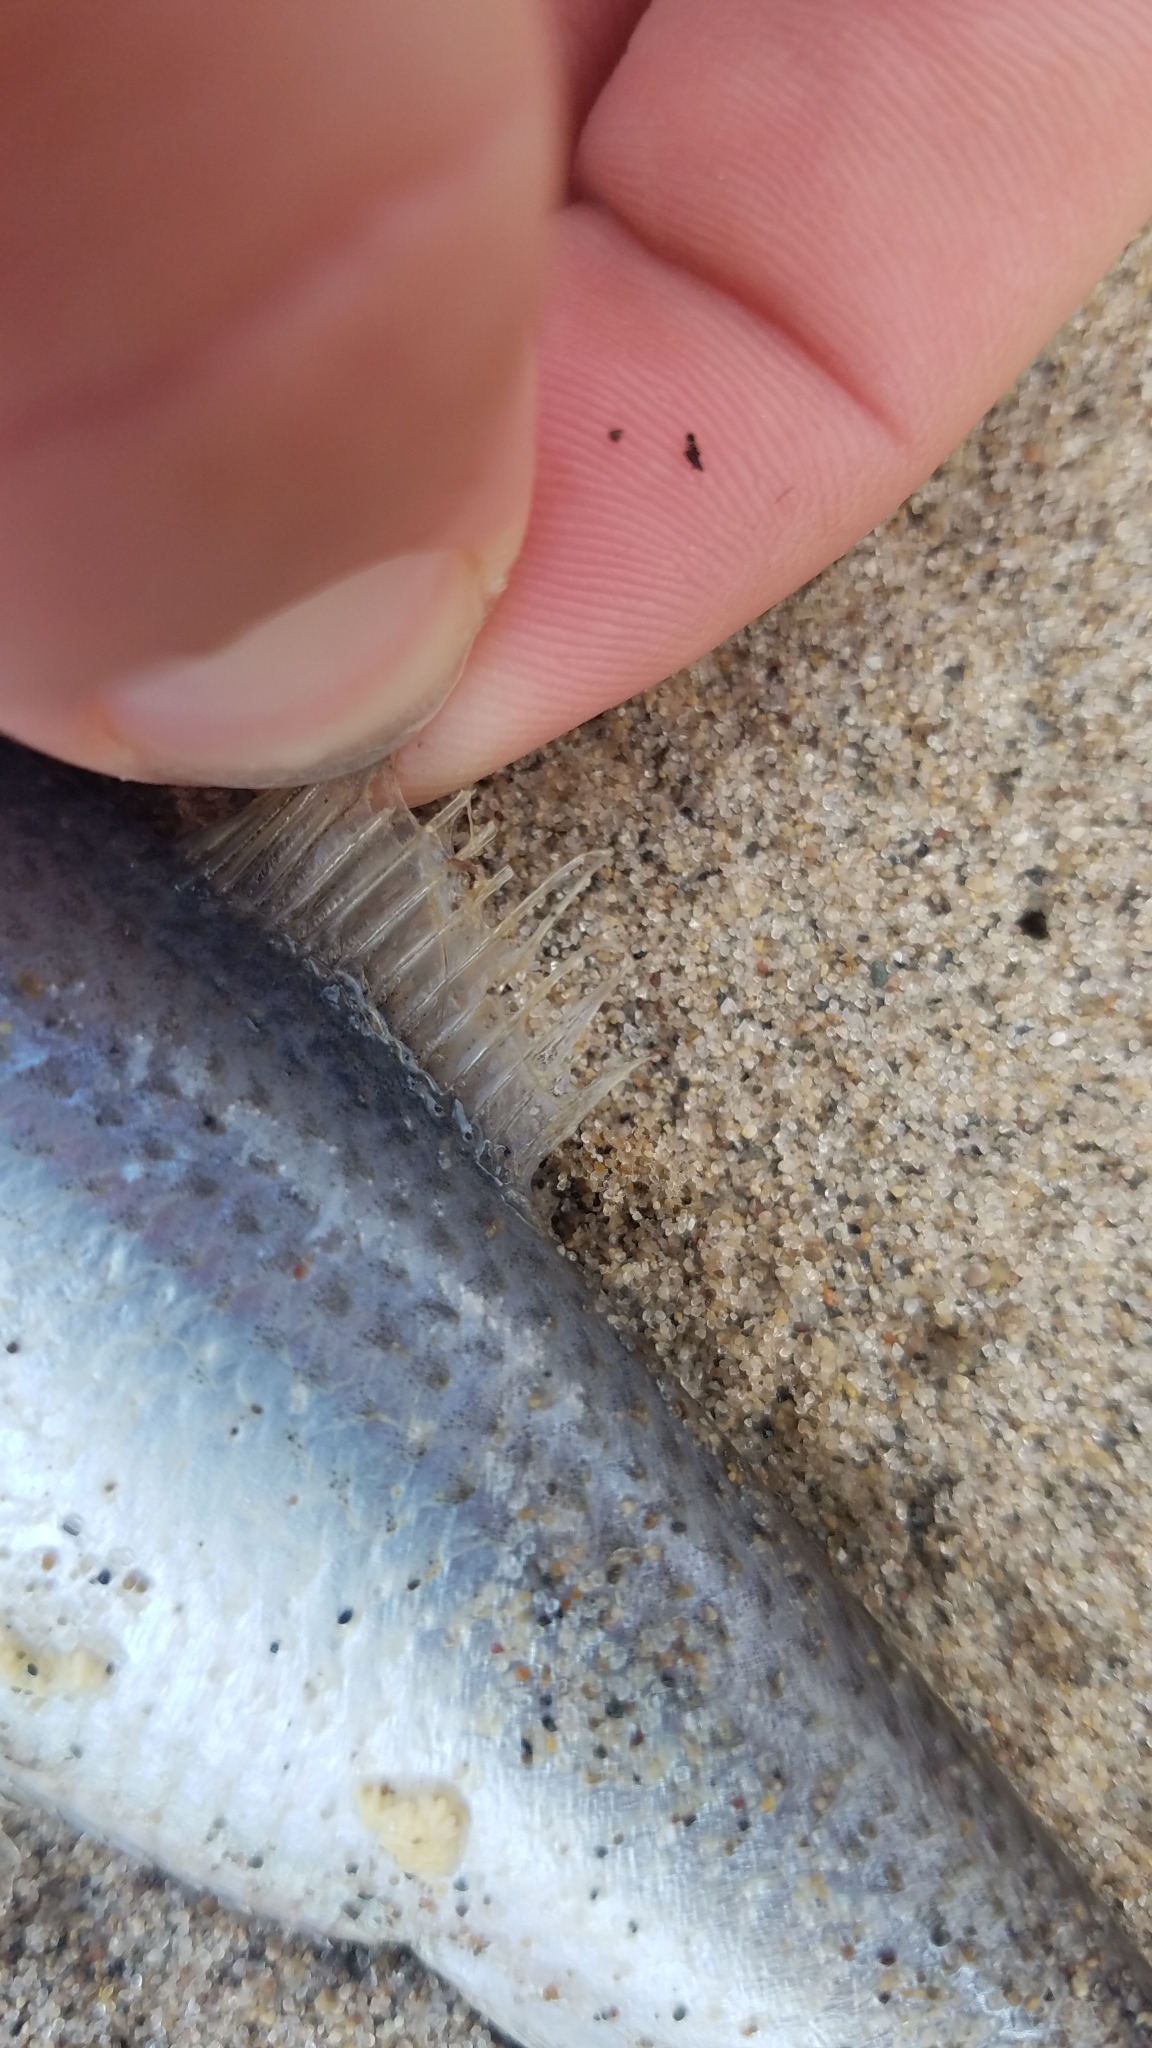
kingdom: Animalia
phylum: Chordata
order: Clupeiformes
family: Clupeidae
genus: Alosa
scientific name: Alosa pseudoharengus
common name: Alewife
